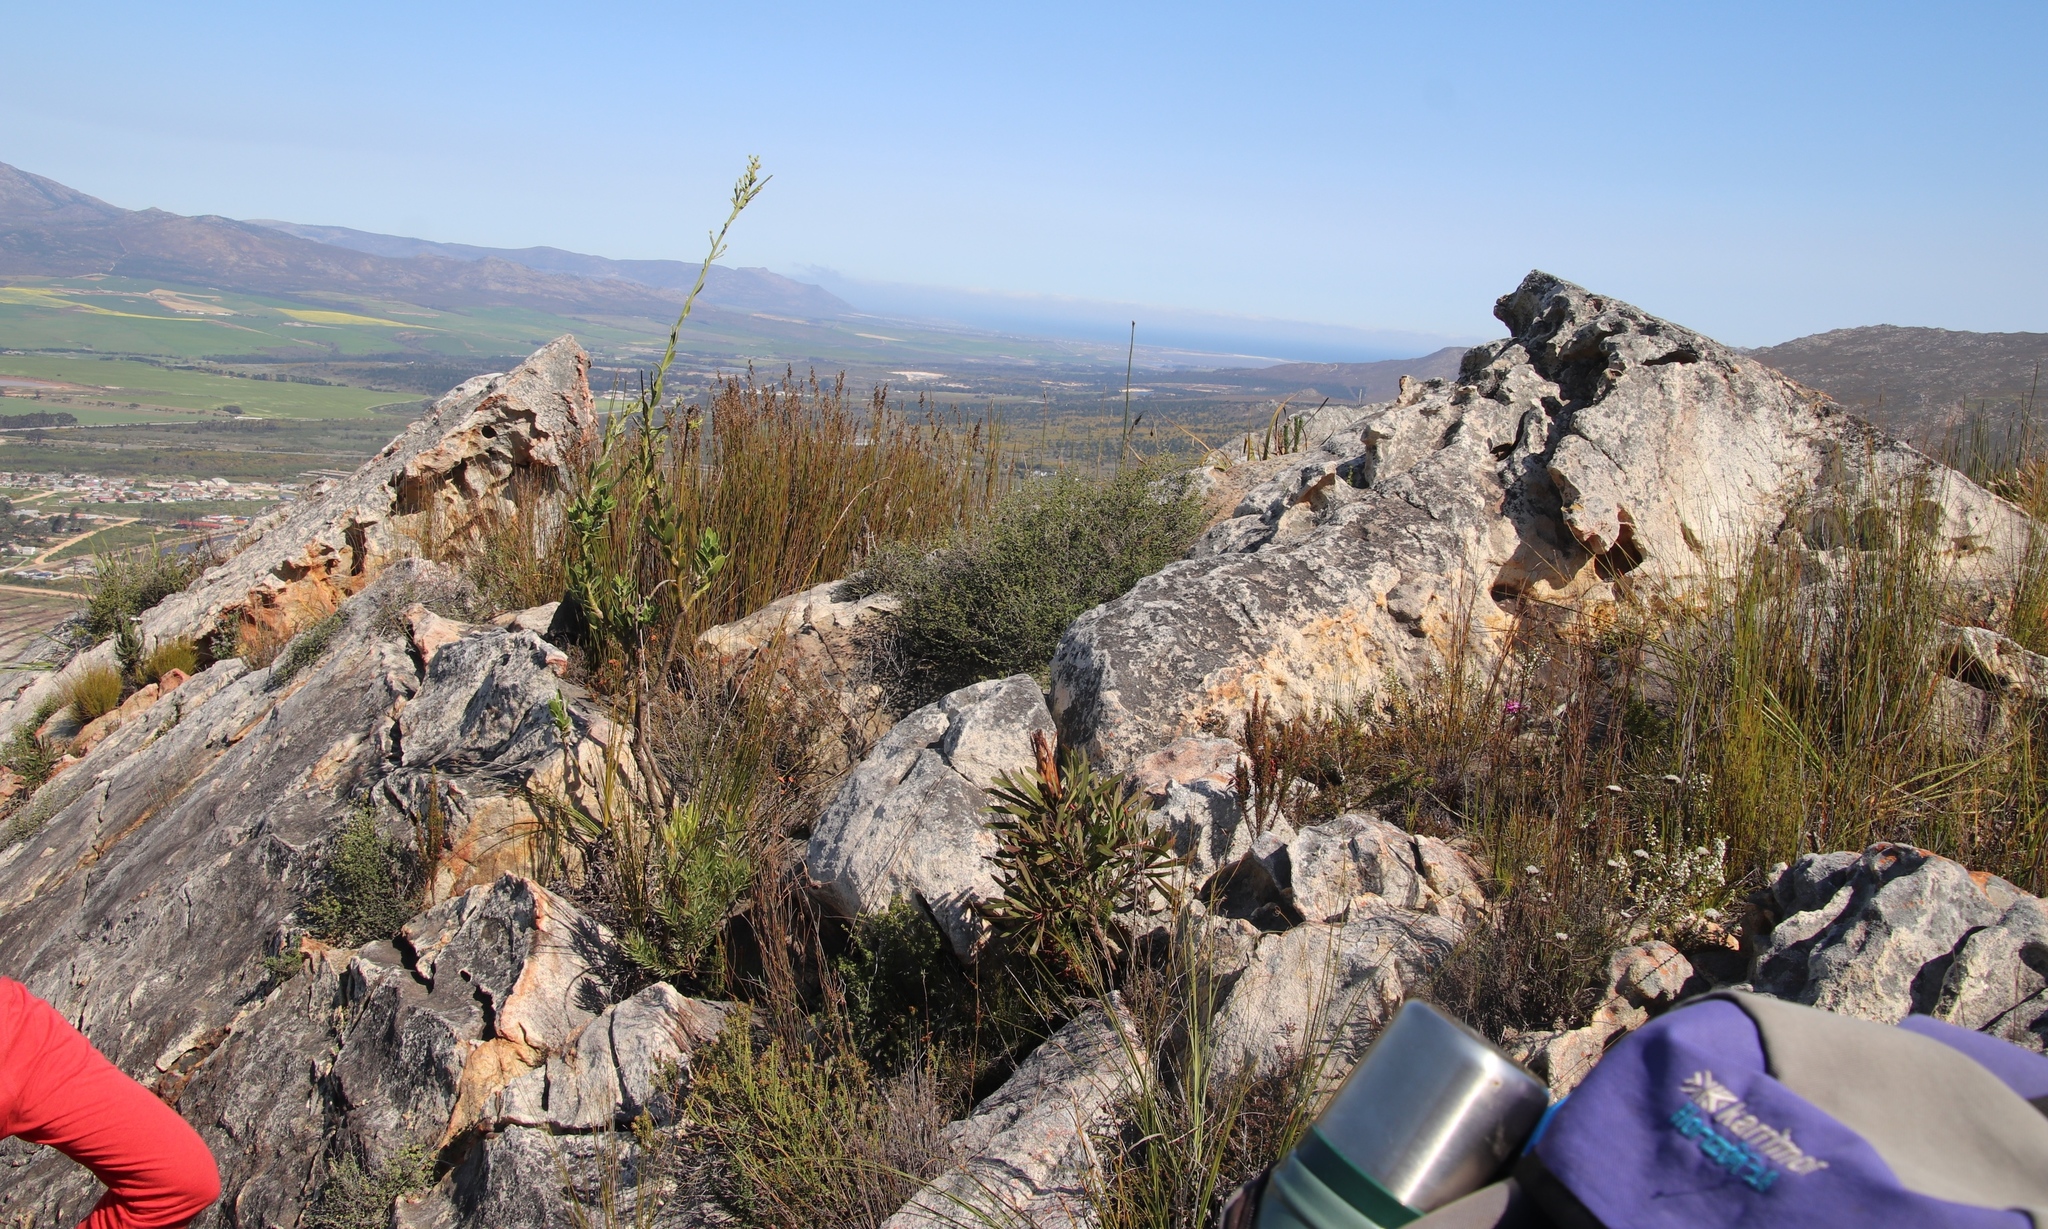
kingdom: Plantae
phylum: Tracheophyta
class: Magnoliopsida
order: Proteales
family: Proteaceae
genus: Protea
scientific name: Protea longifolia
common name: Long-leaf sugarbush
